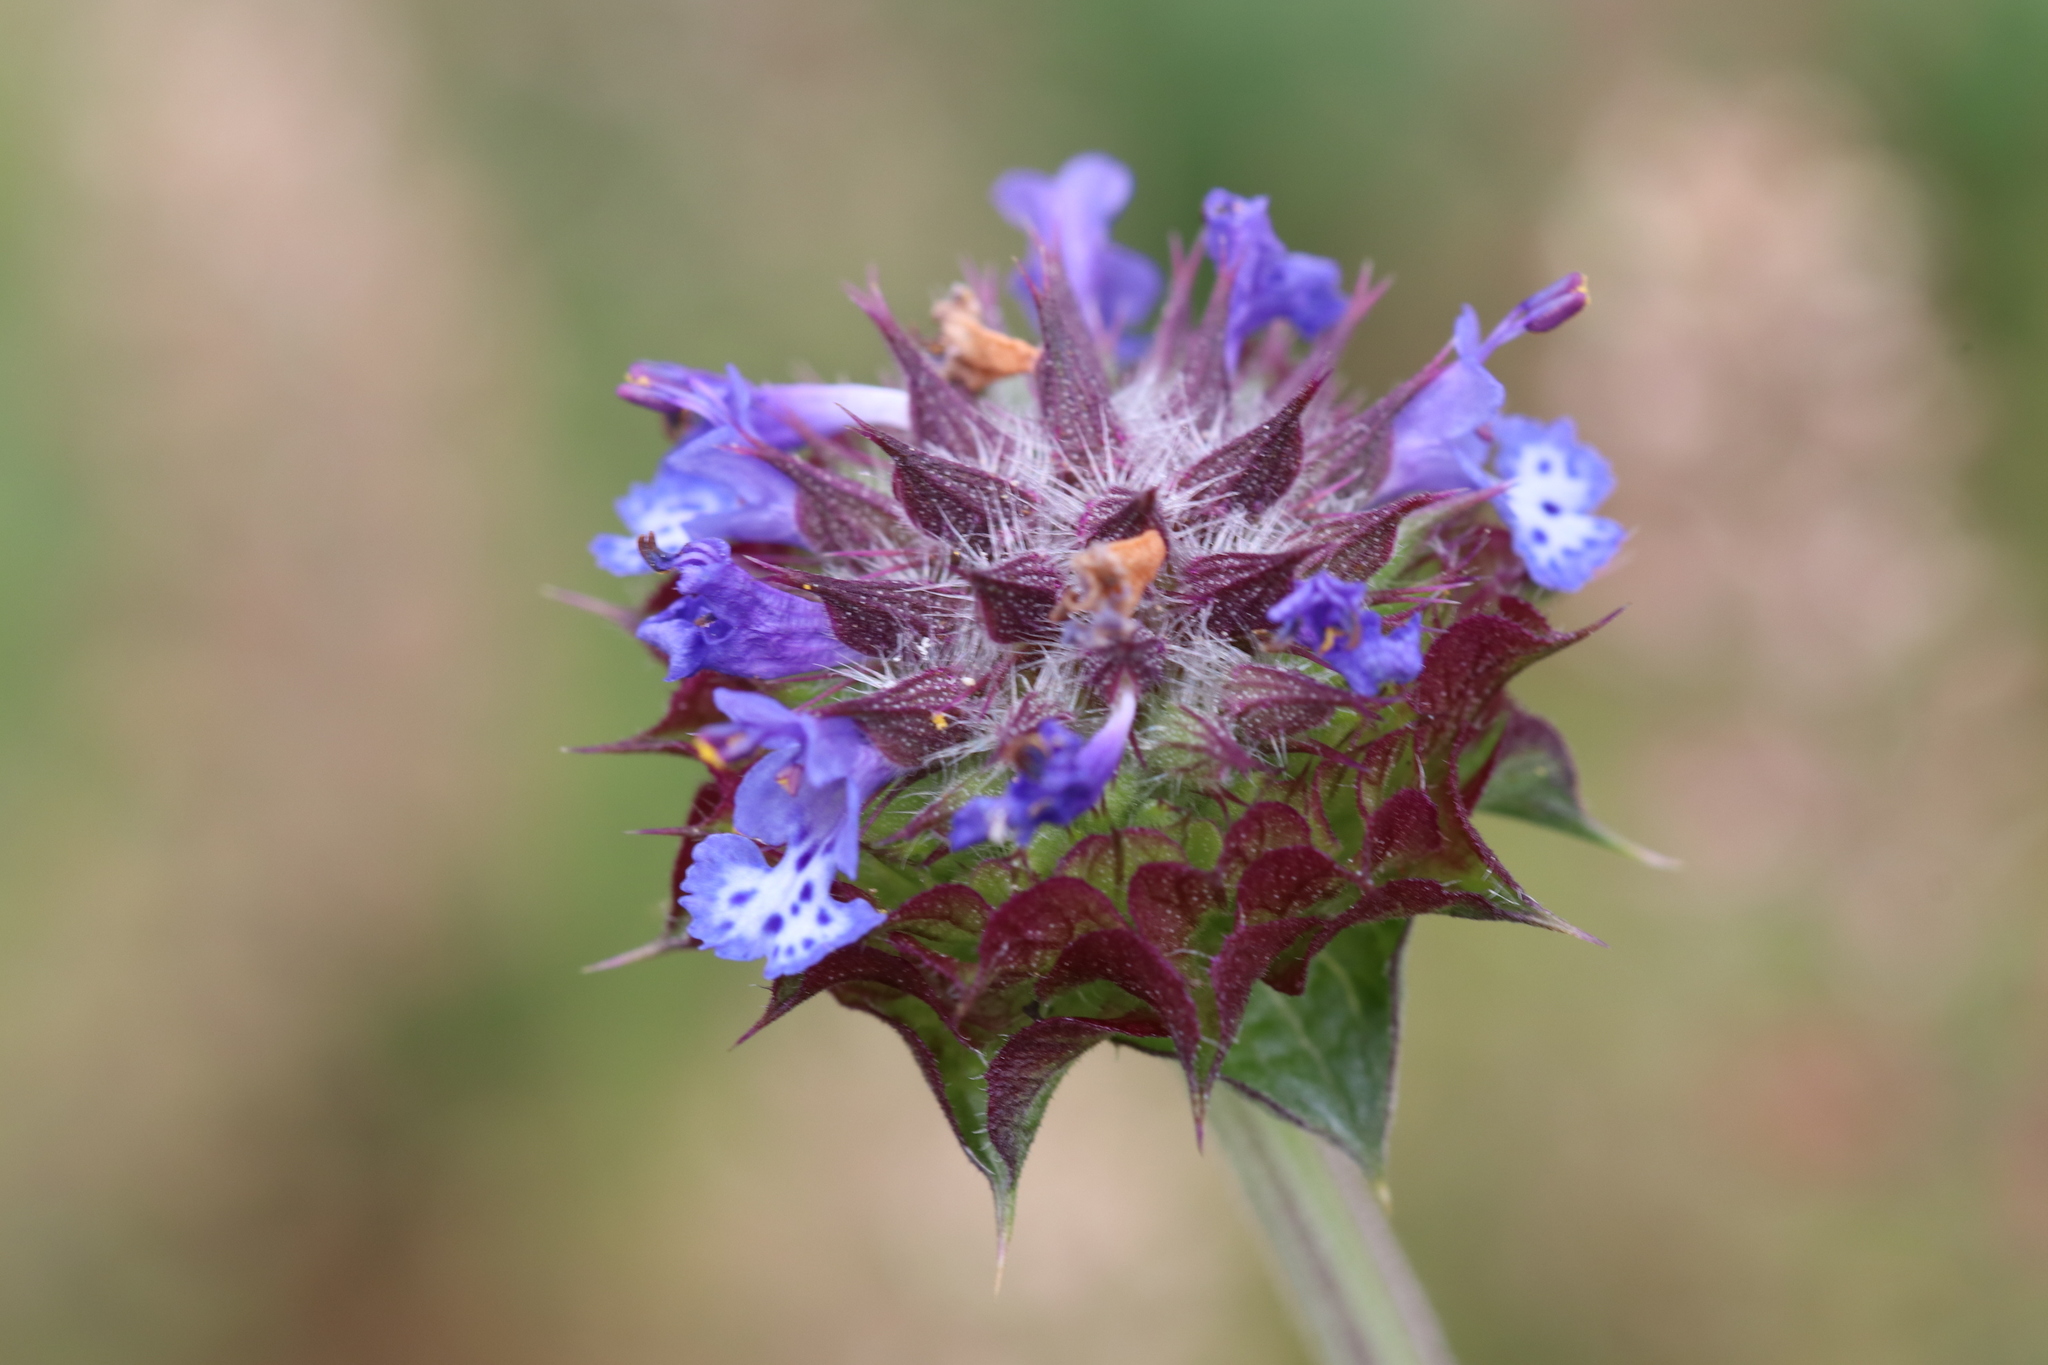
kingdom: Plantae
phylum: Tracheophyta
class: Magnoliopsida
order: Lamiales
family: Lamiaceae
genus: Salvia
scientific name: Salvia columbariae
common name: Chia
